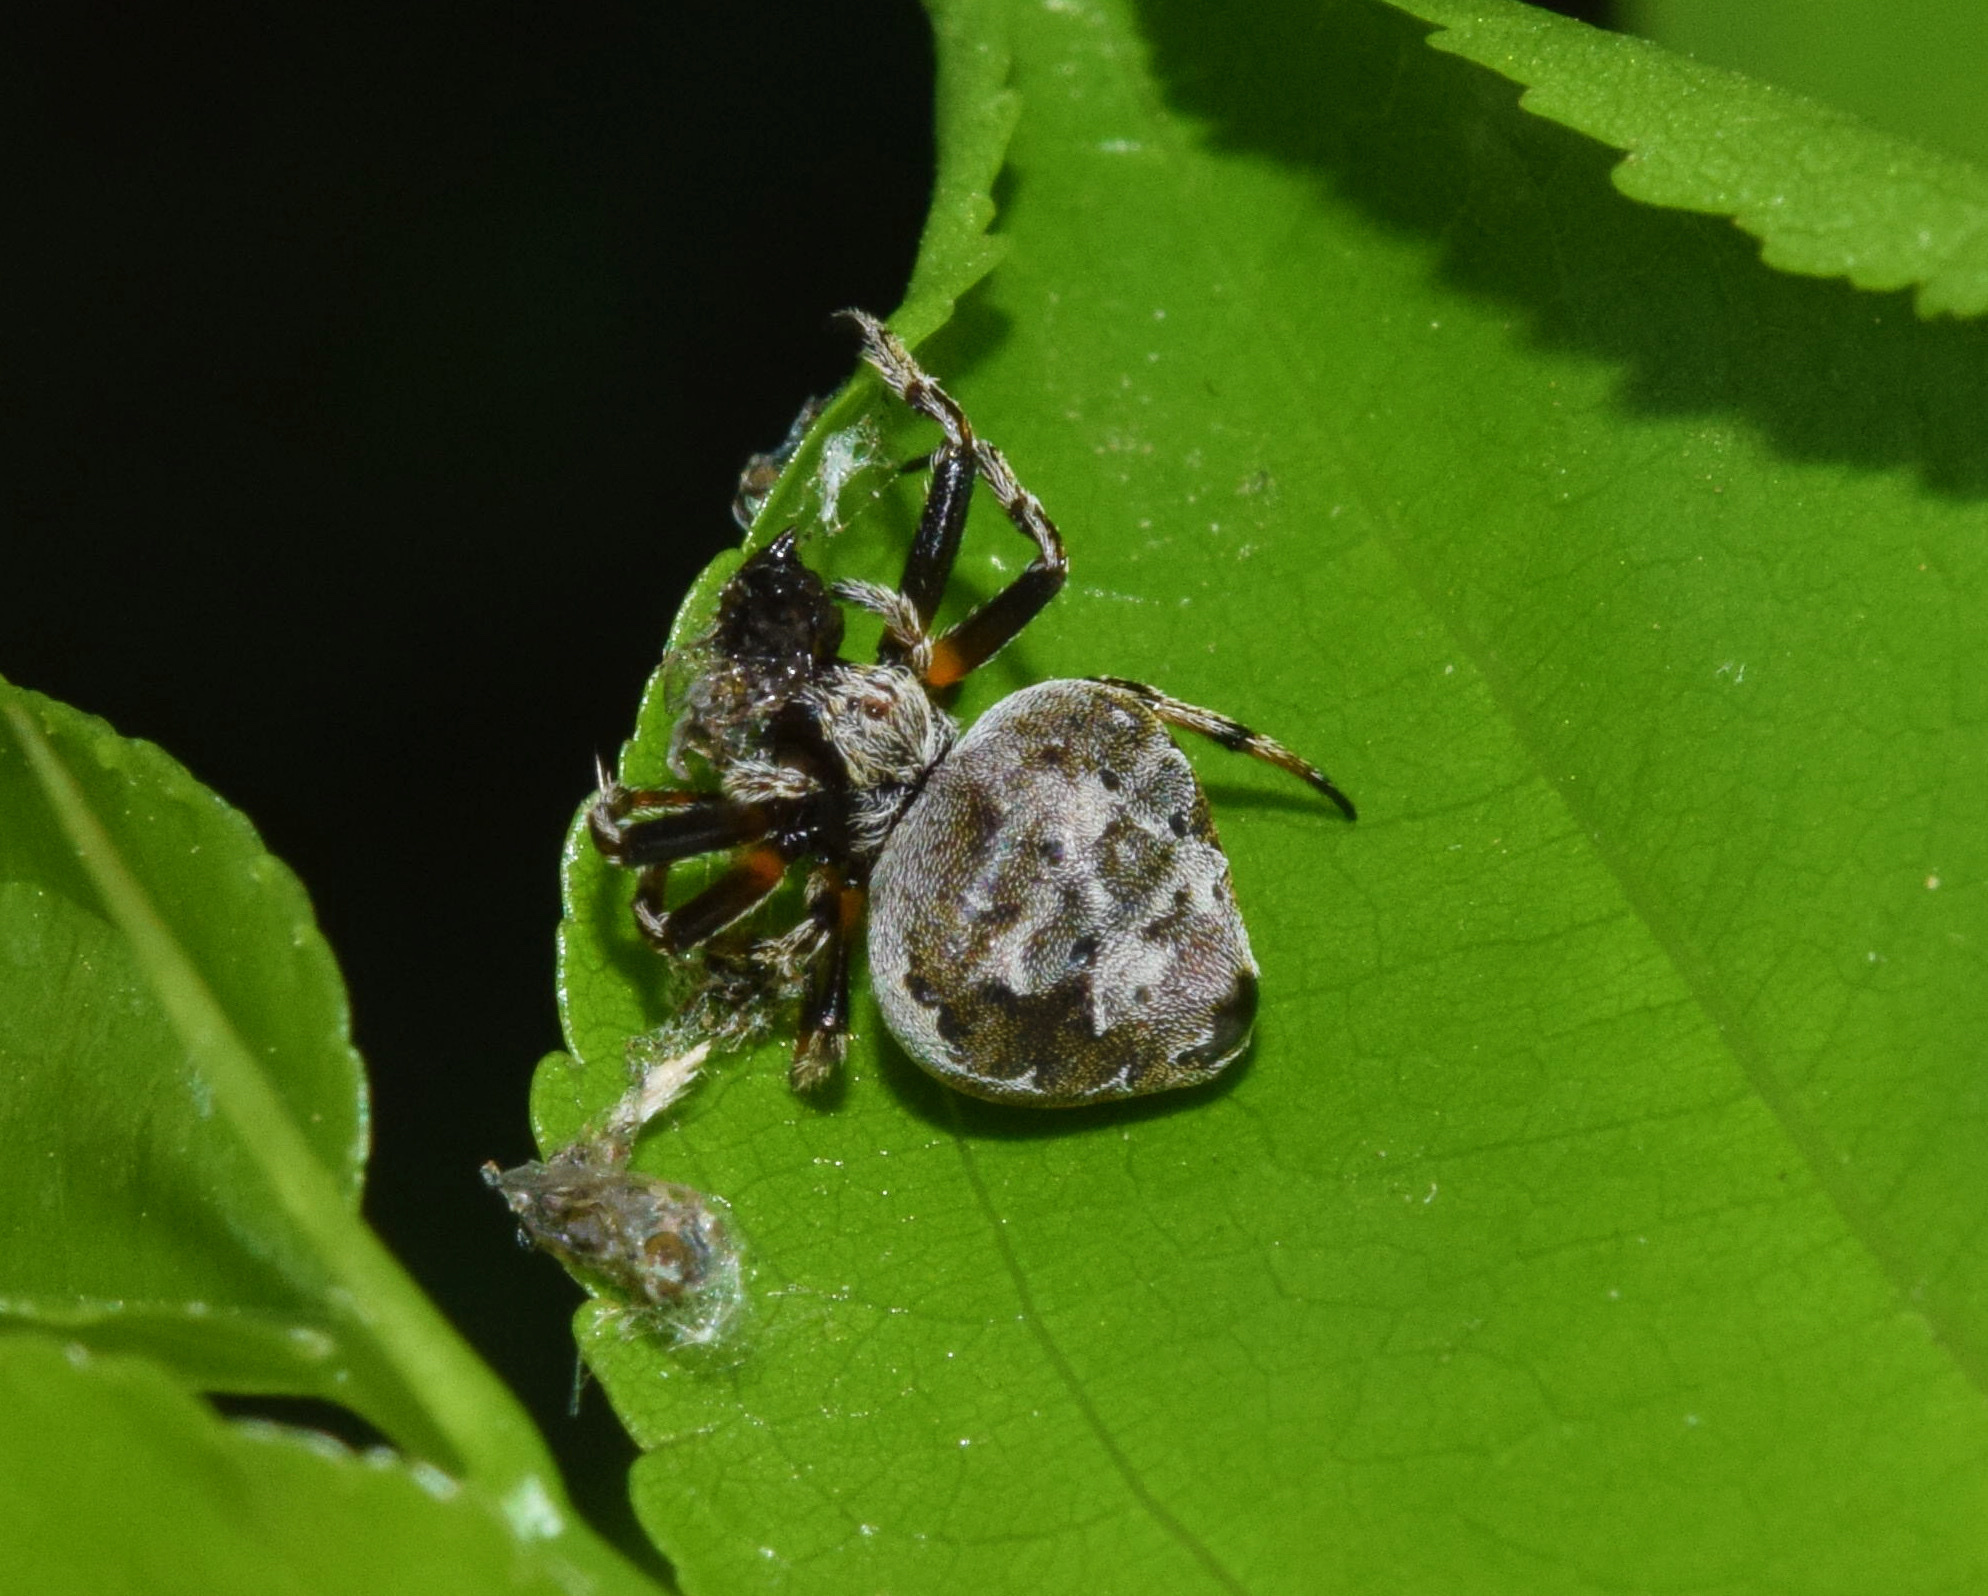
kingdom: Animalia
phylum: Arthropoda
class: Arachnida
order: Araneae
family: Araneidae
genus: Eriovixia
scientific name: Eriovixia excelsa
